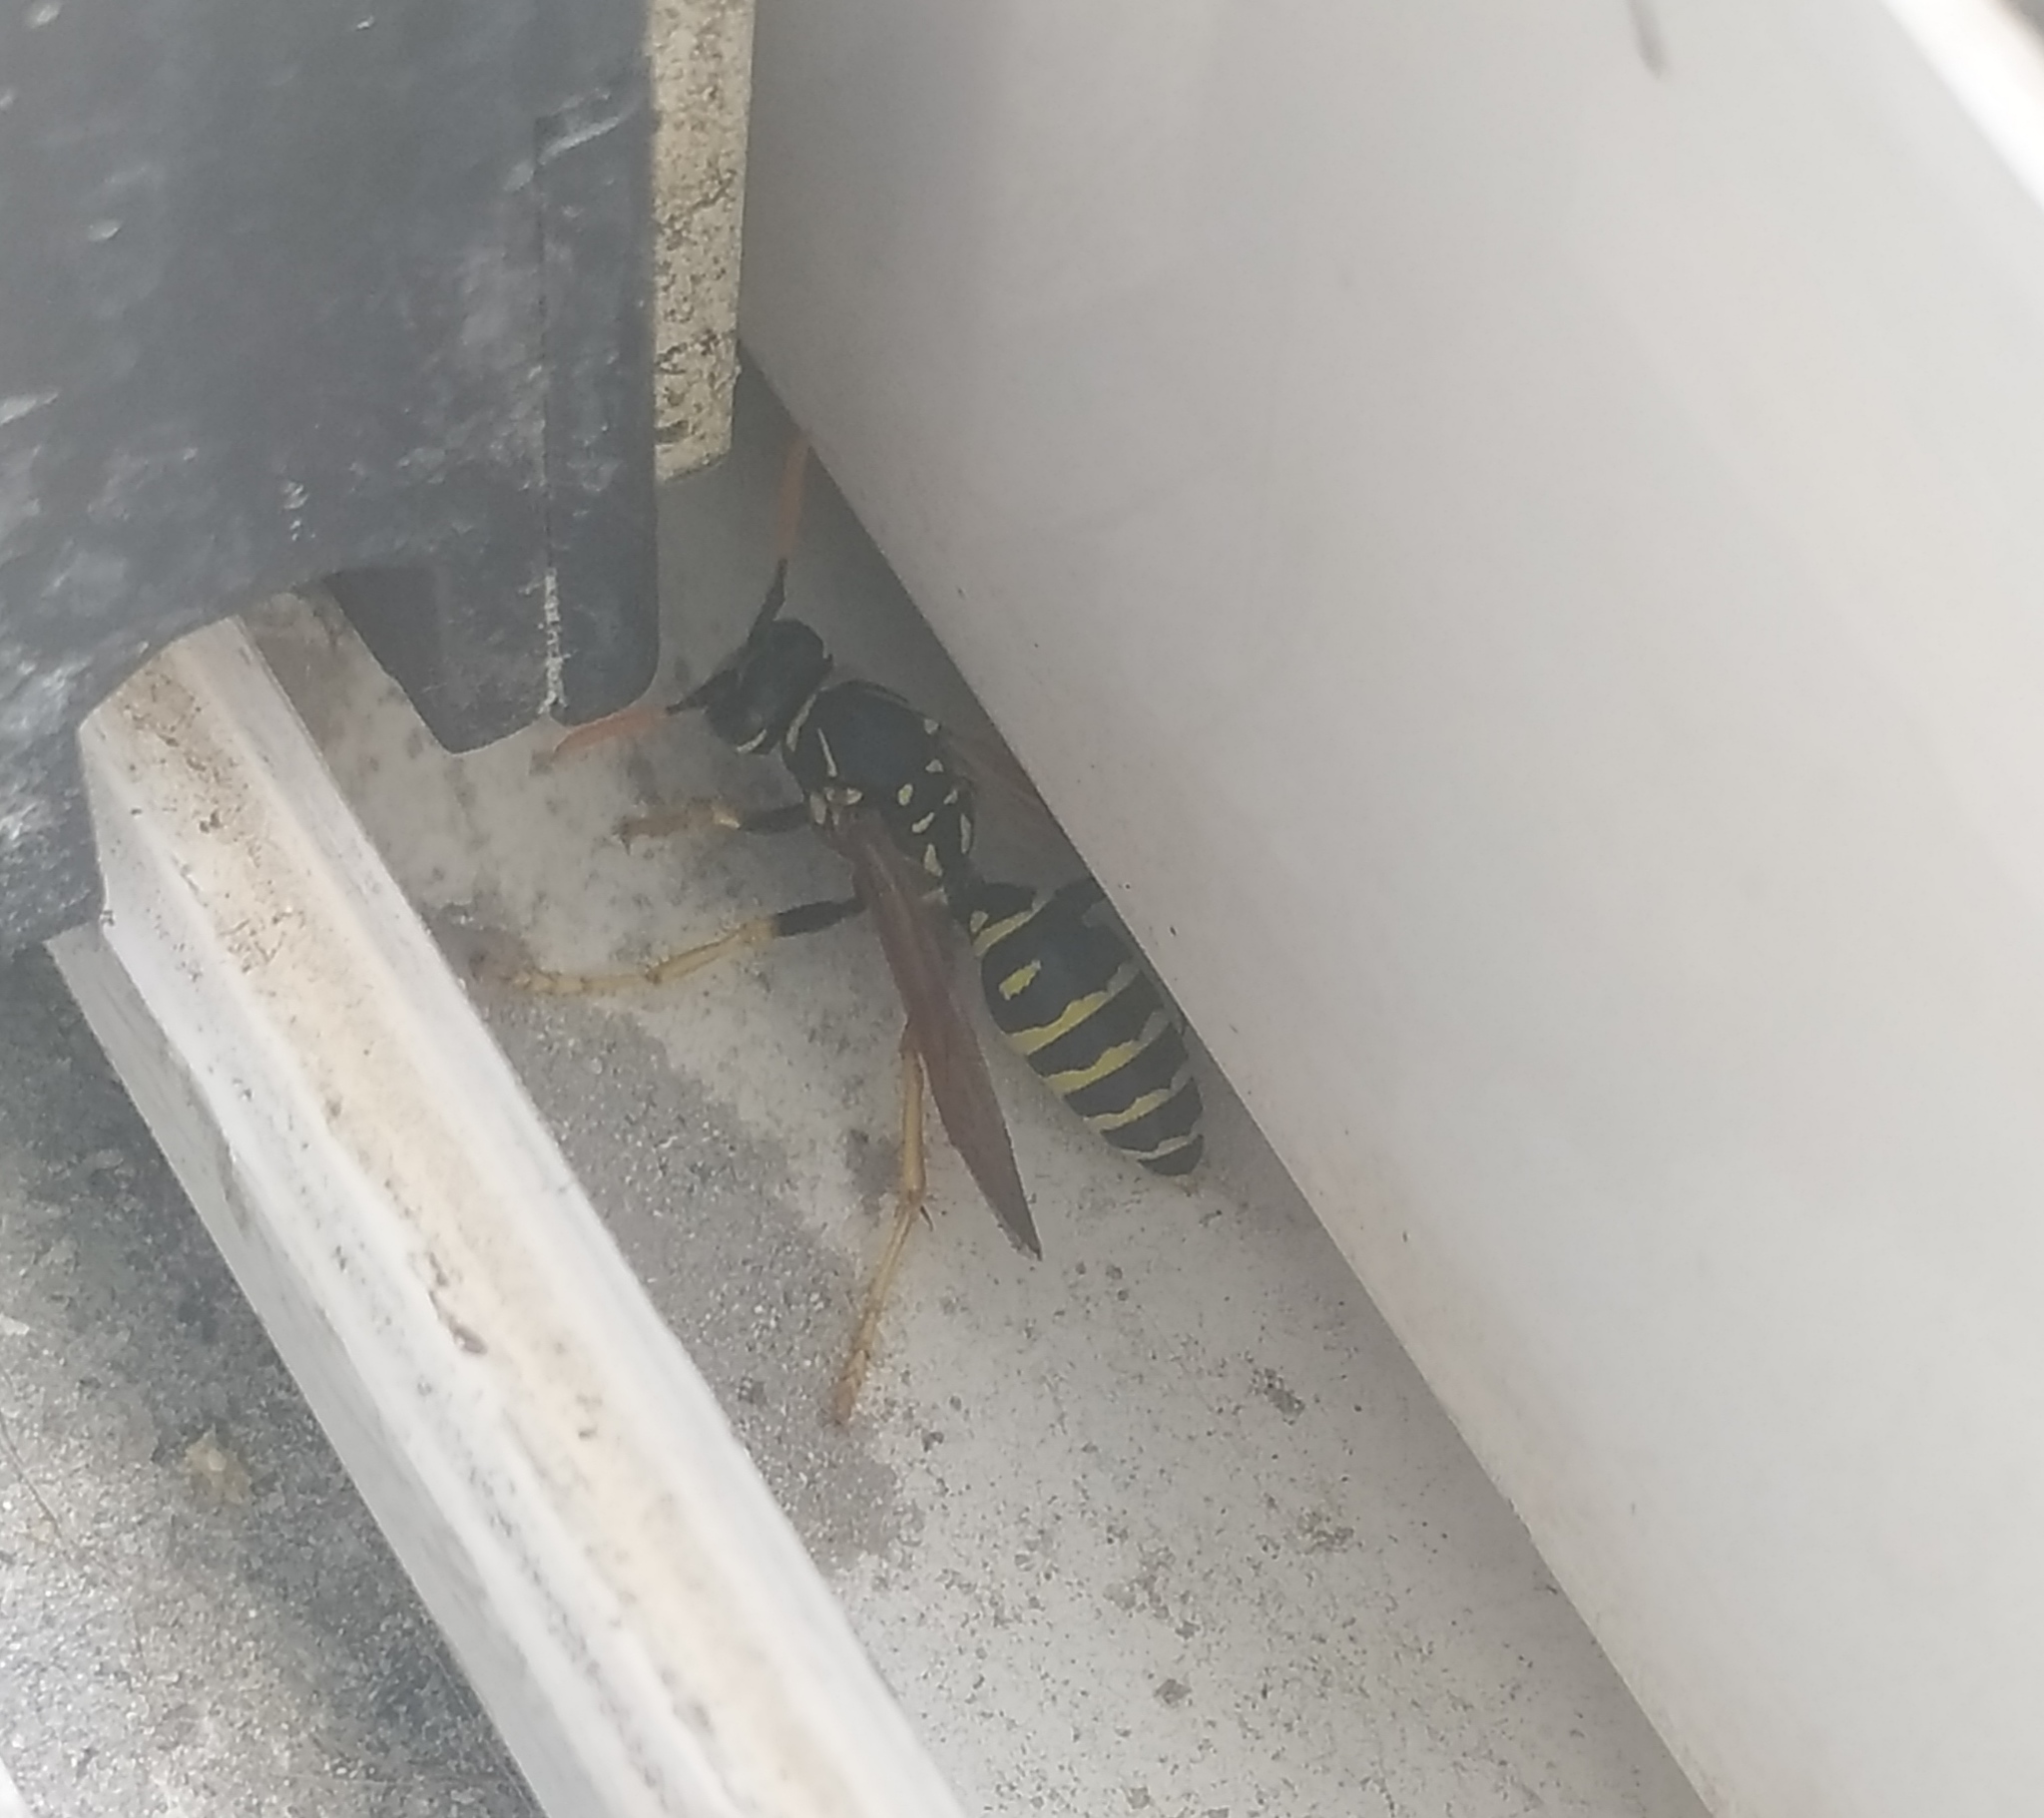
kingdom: Animalia
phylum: Arthropoda
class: Insecta
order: Hymenoptera
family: Eumenidae
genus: Polistes
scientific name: Polistes dominula
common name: Paper wasp
